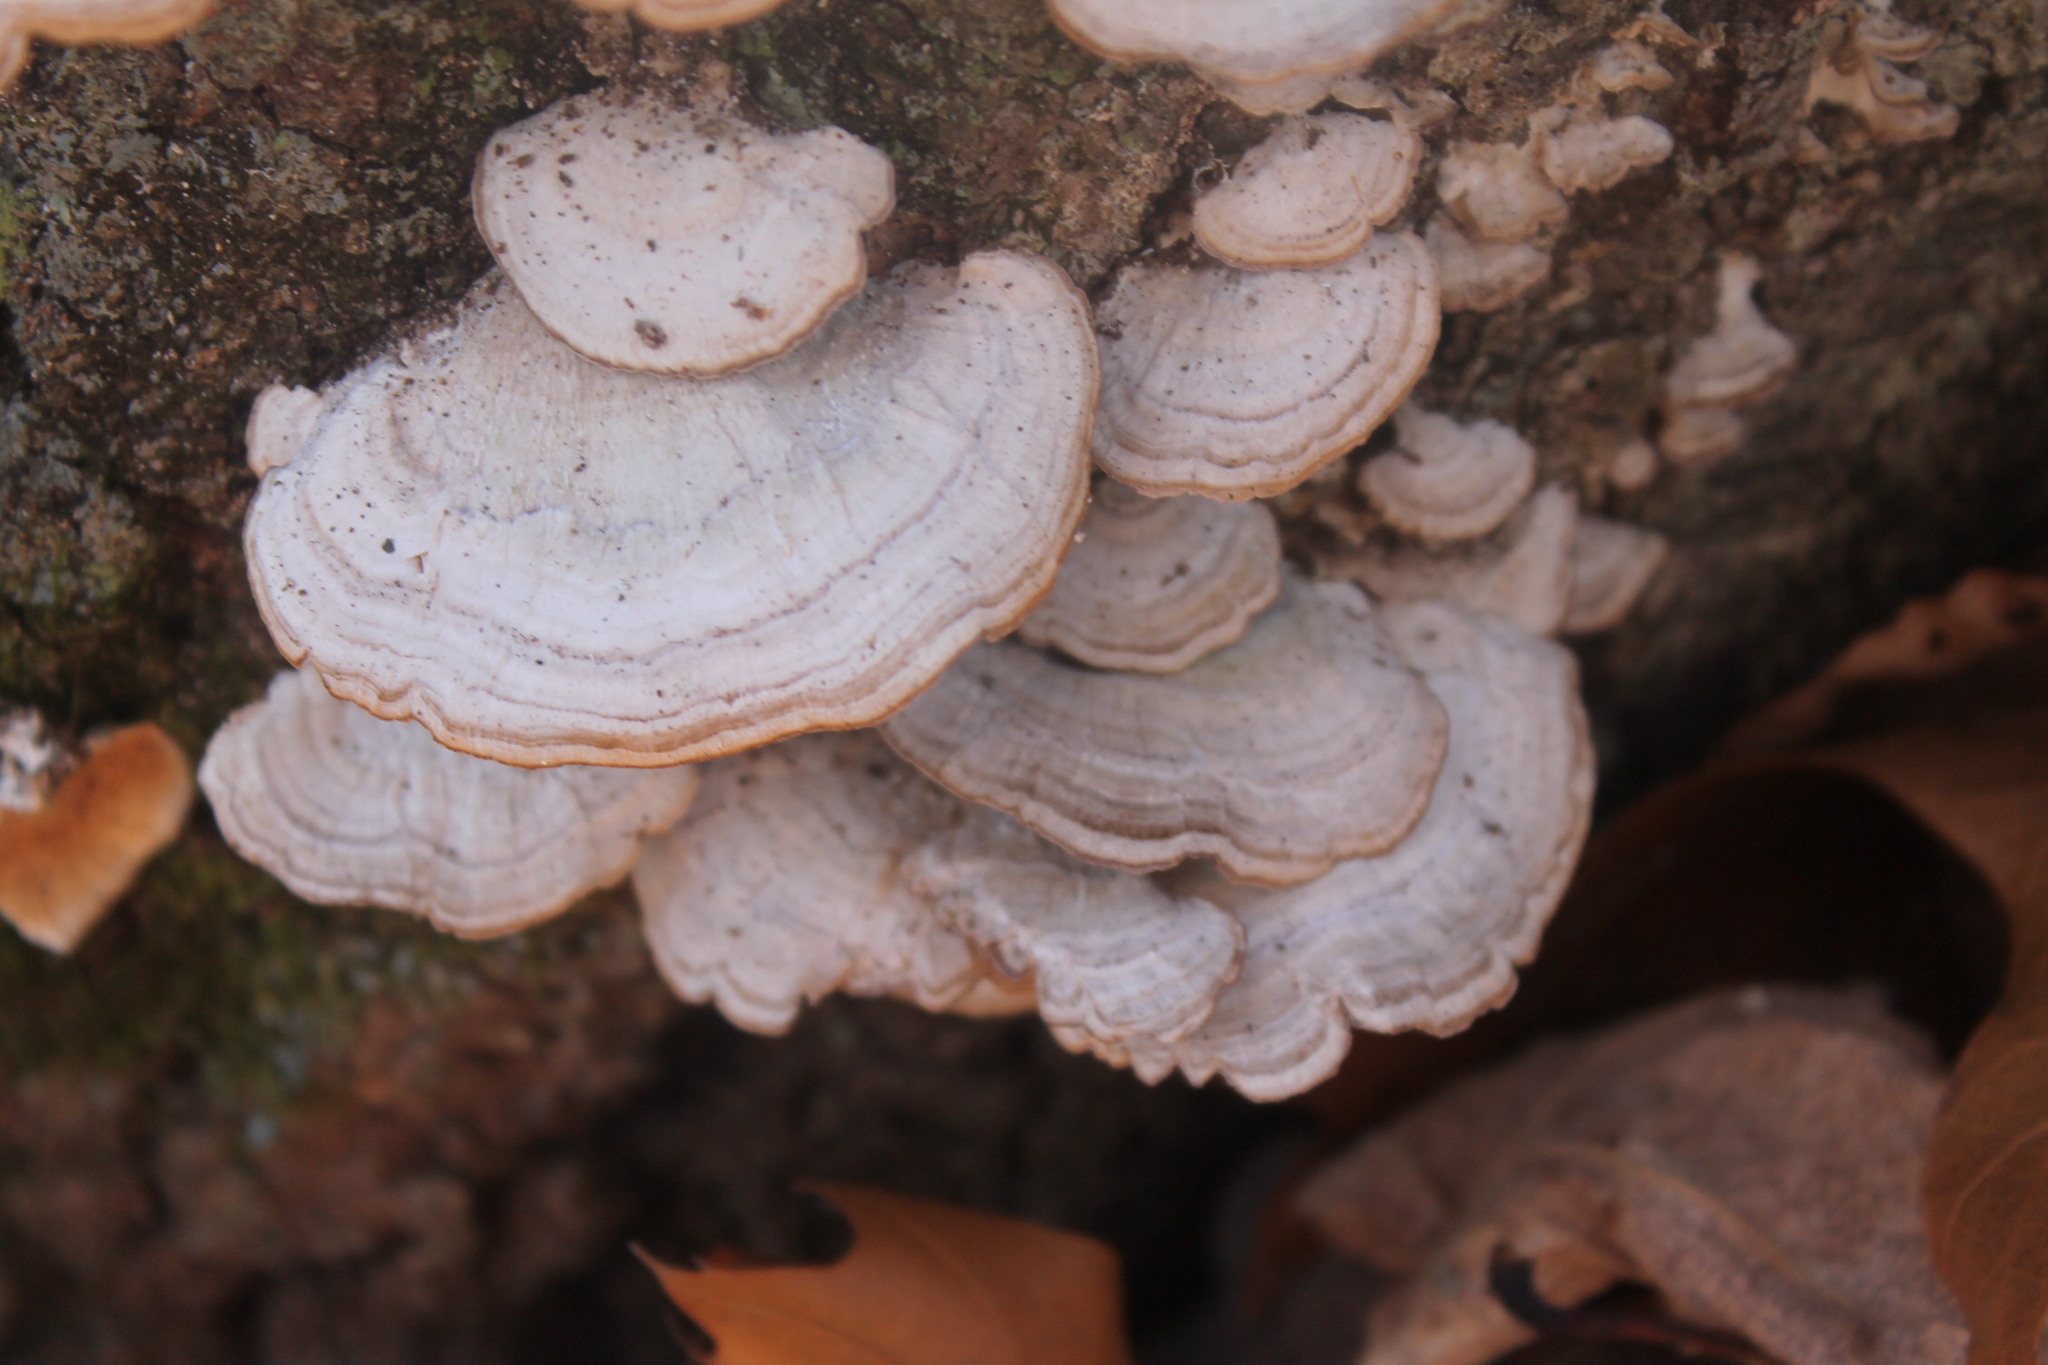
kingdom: Fungi
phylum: Basidiomycota
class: Agaricomycetes
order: Hymenochaetales
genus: Trichaptum
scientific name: Trichaptum biforme
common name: Violet-toothed polypore
